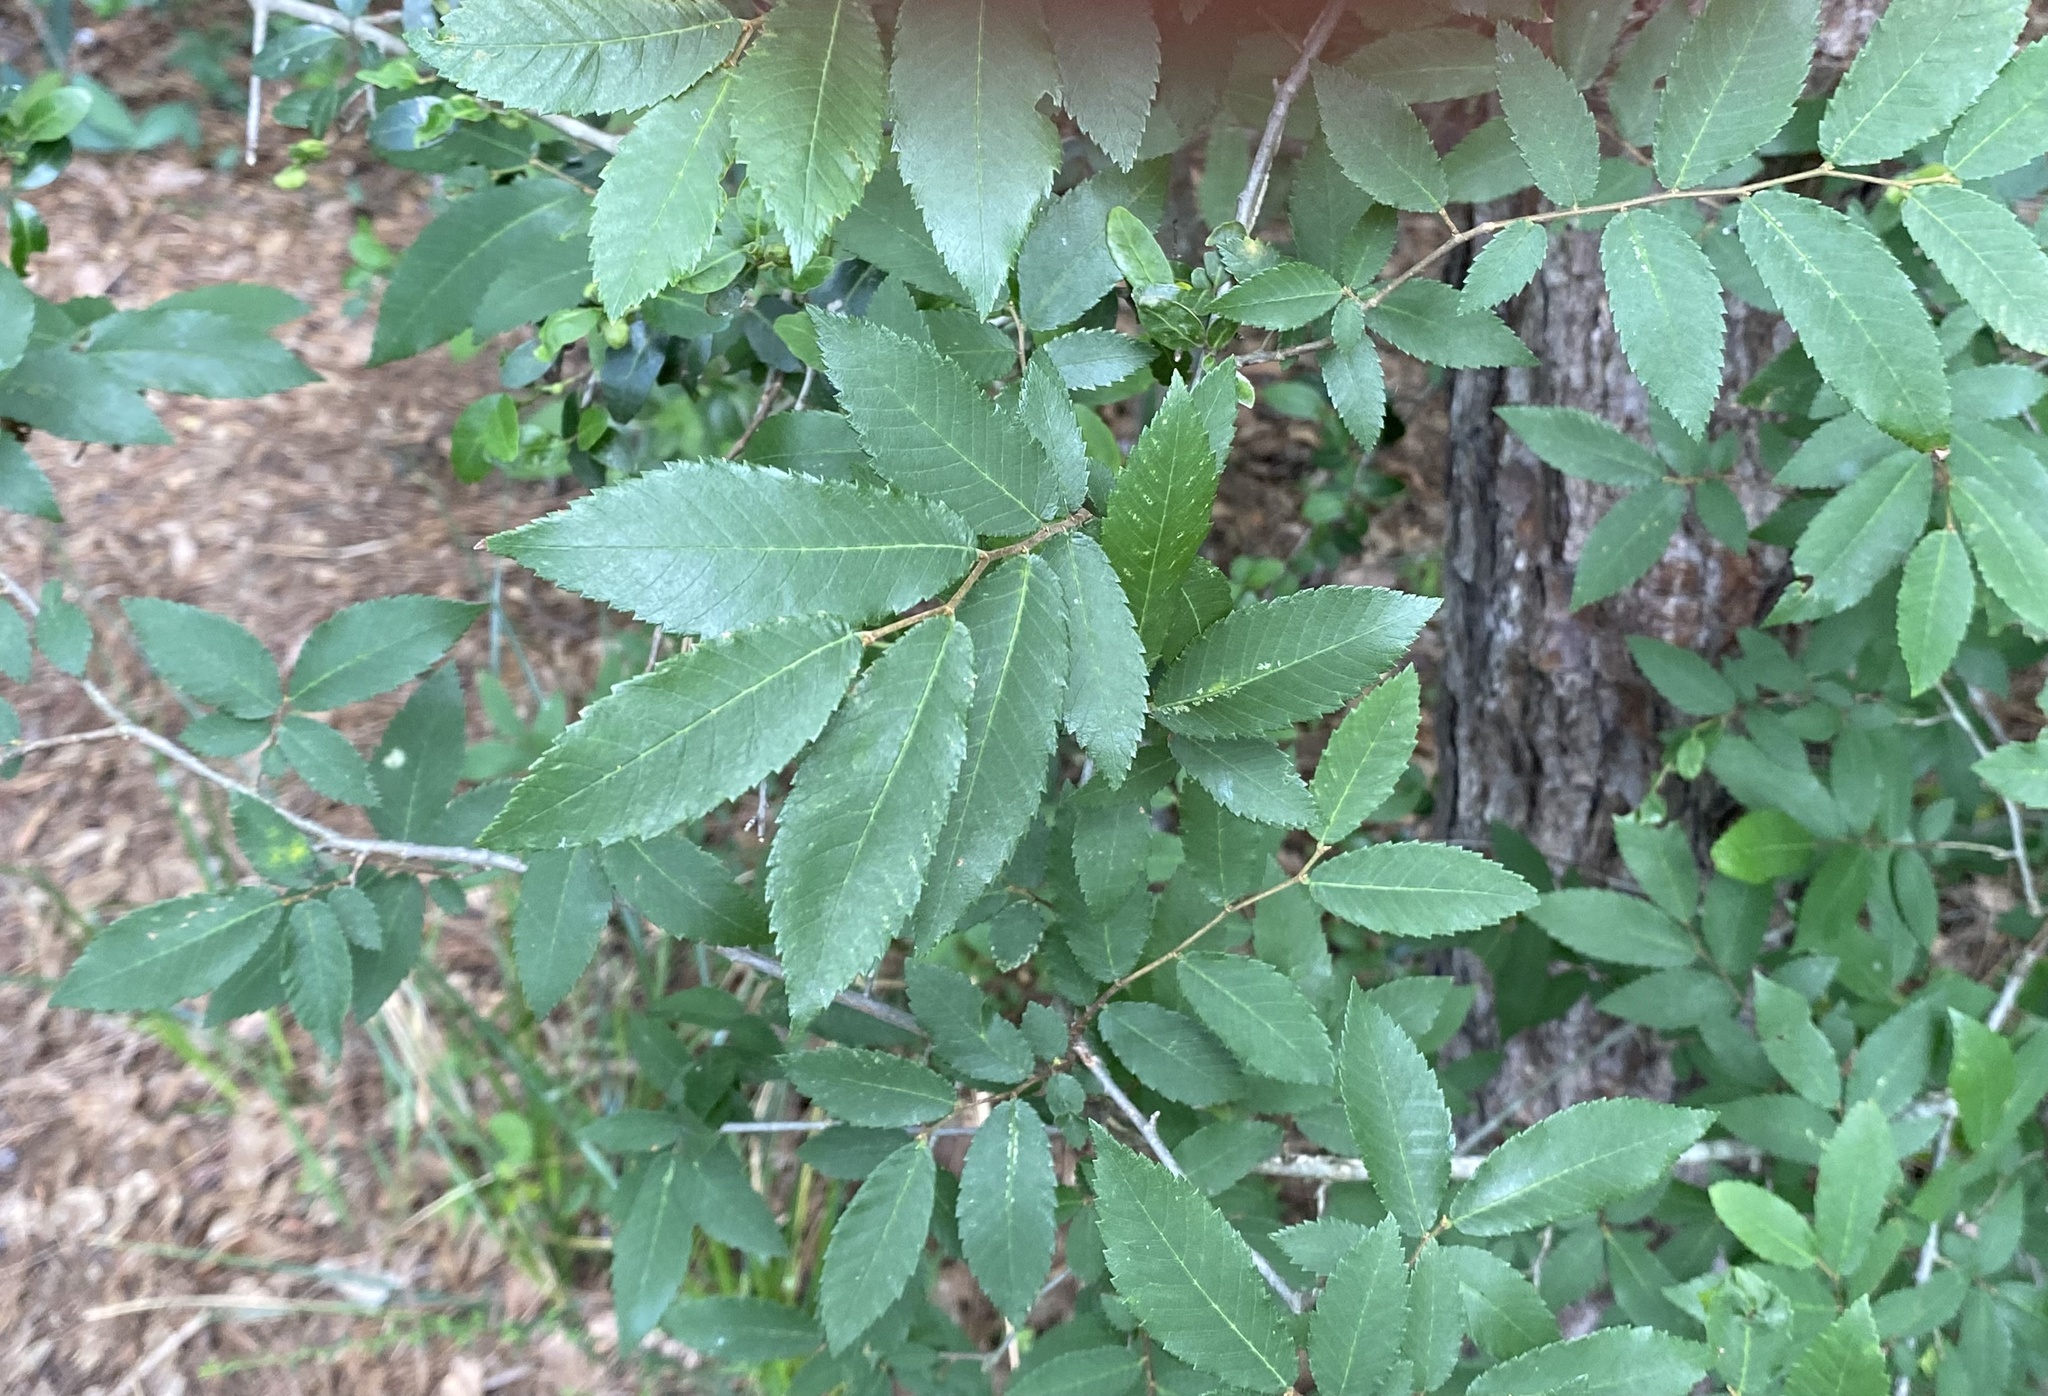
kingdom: Plantae
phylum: Tracheophyta
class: Magnoliopsida
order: Rosales
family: Ulmaceae
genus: Ulmus
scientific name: Ulmus alata
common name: Winged elm
